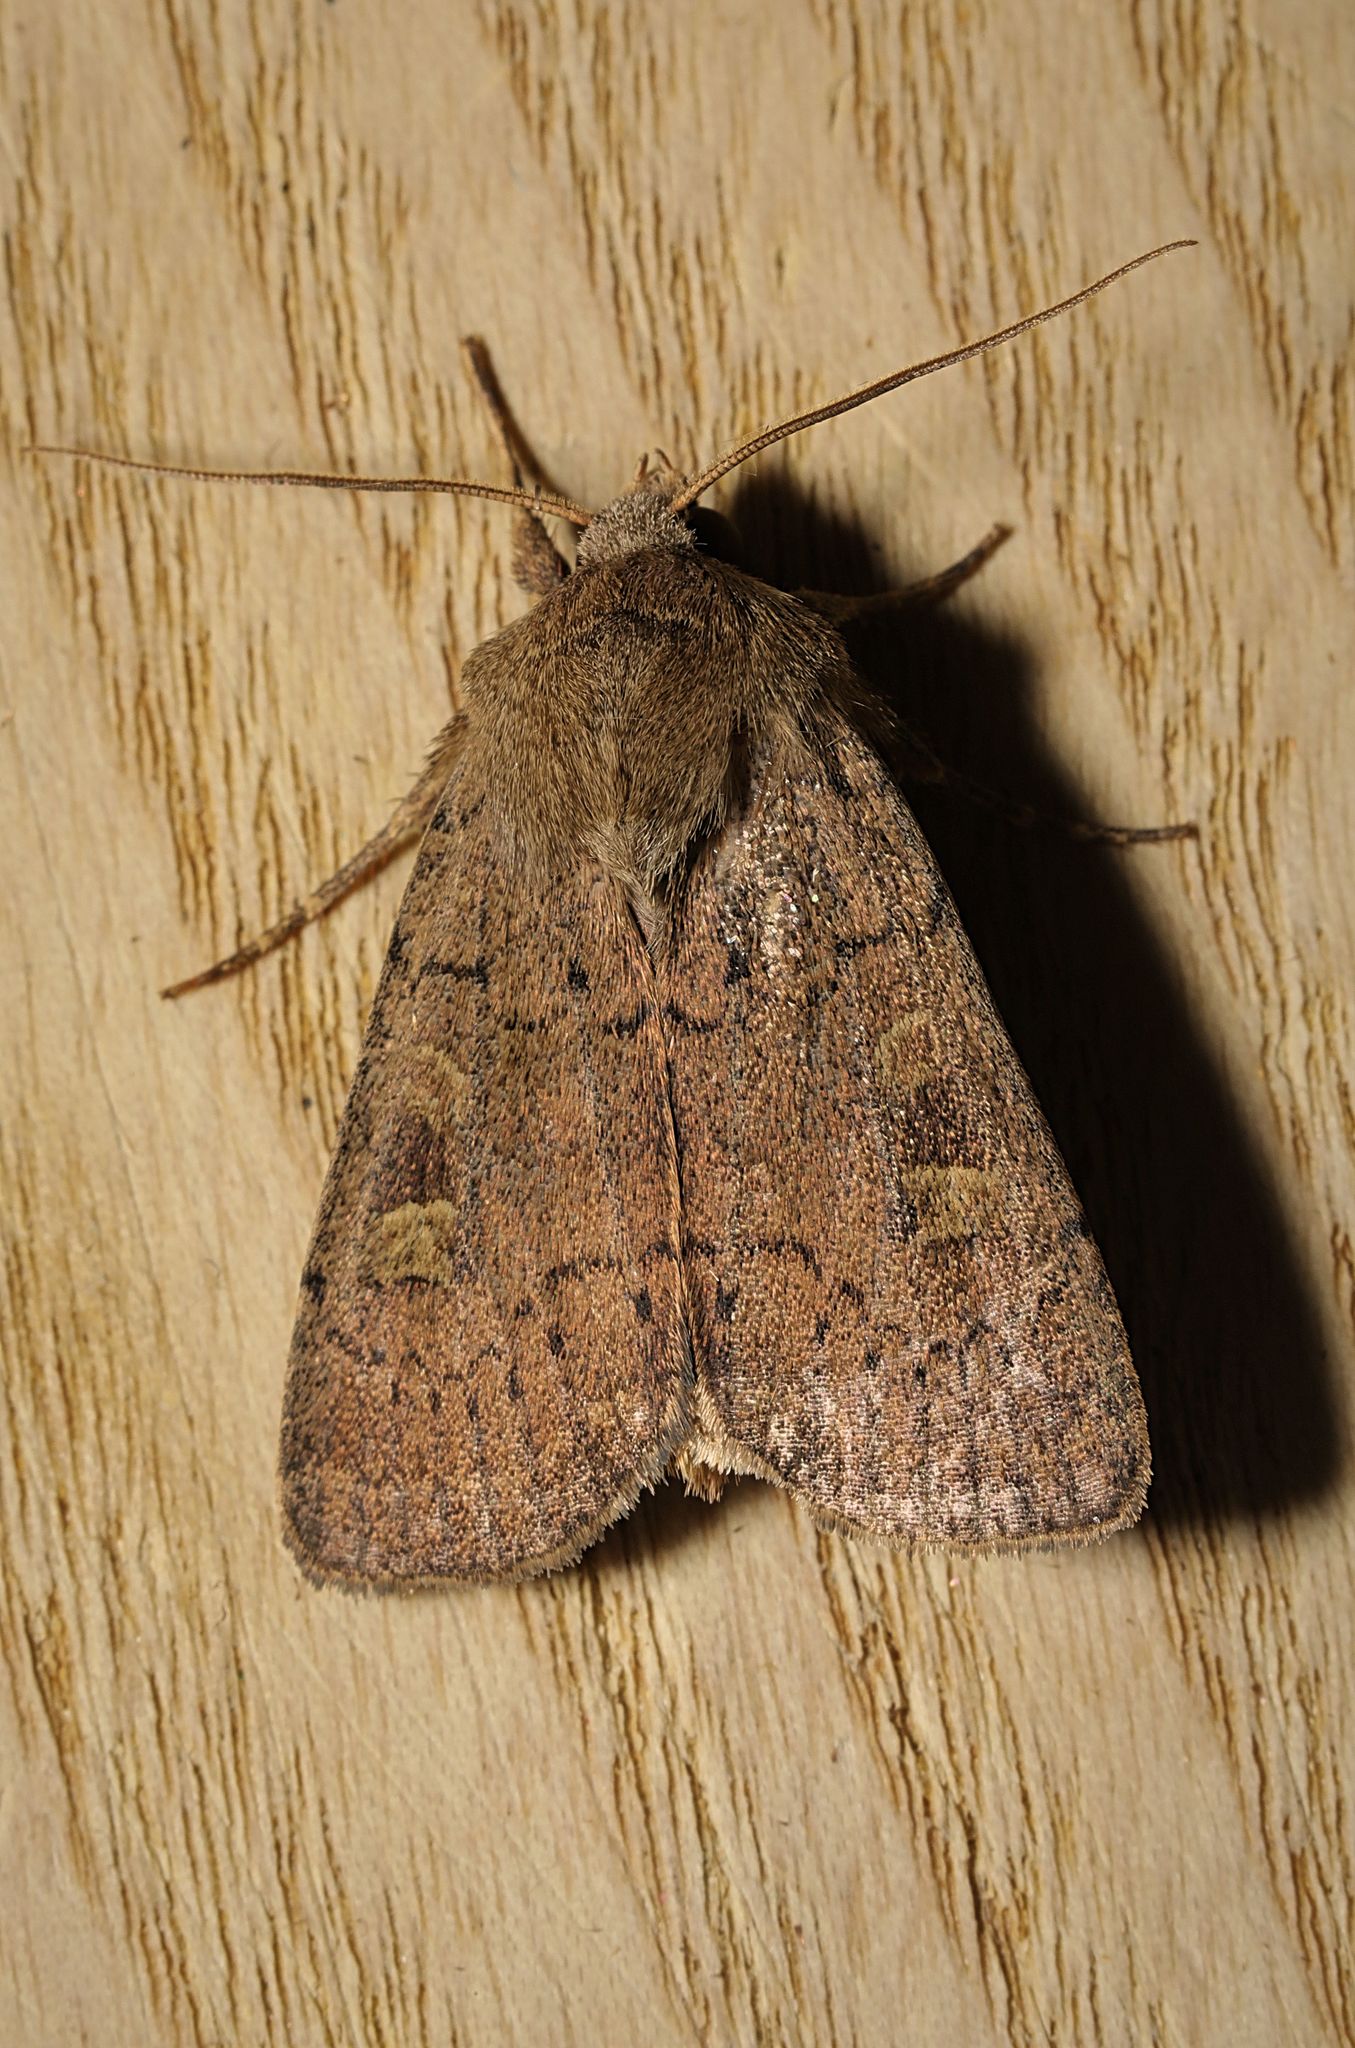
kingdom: Animalia
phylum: Arthropoda
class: Insecta
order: Lepidoptera
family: Noctuidae
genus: Xestia
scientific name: Xestia xanthographa
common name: Square-spot rustic
